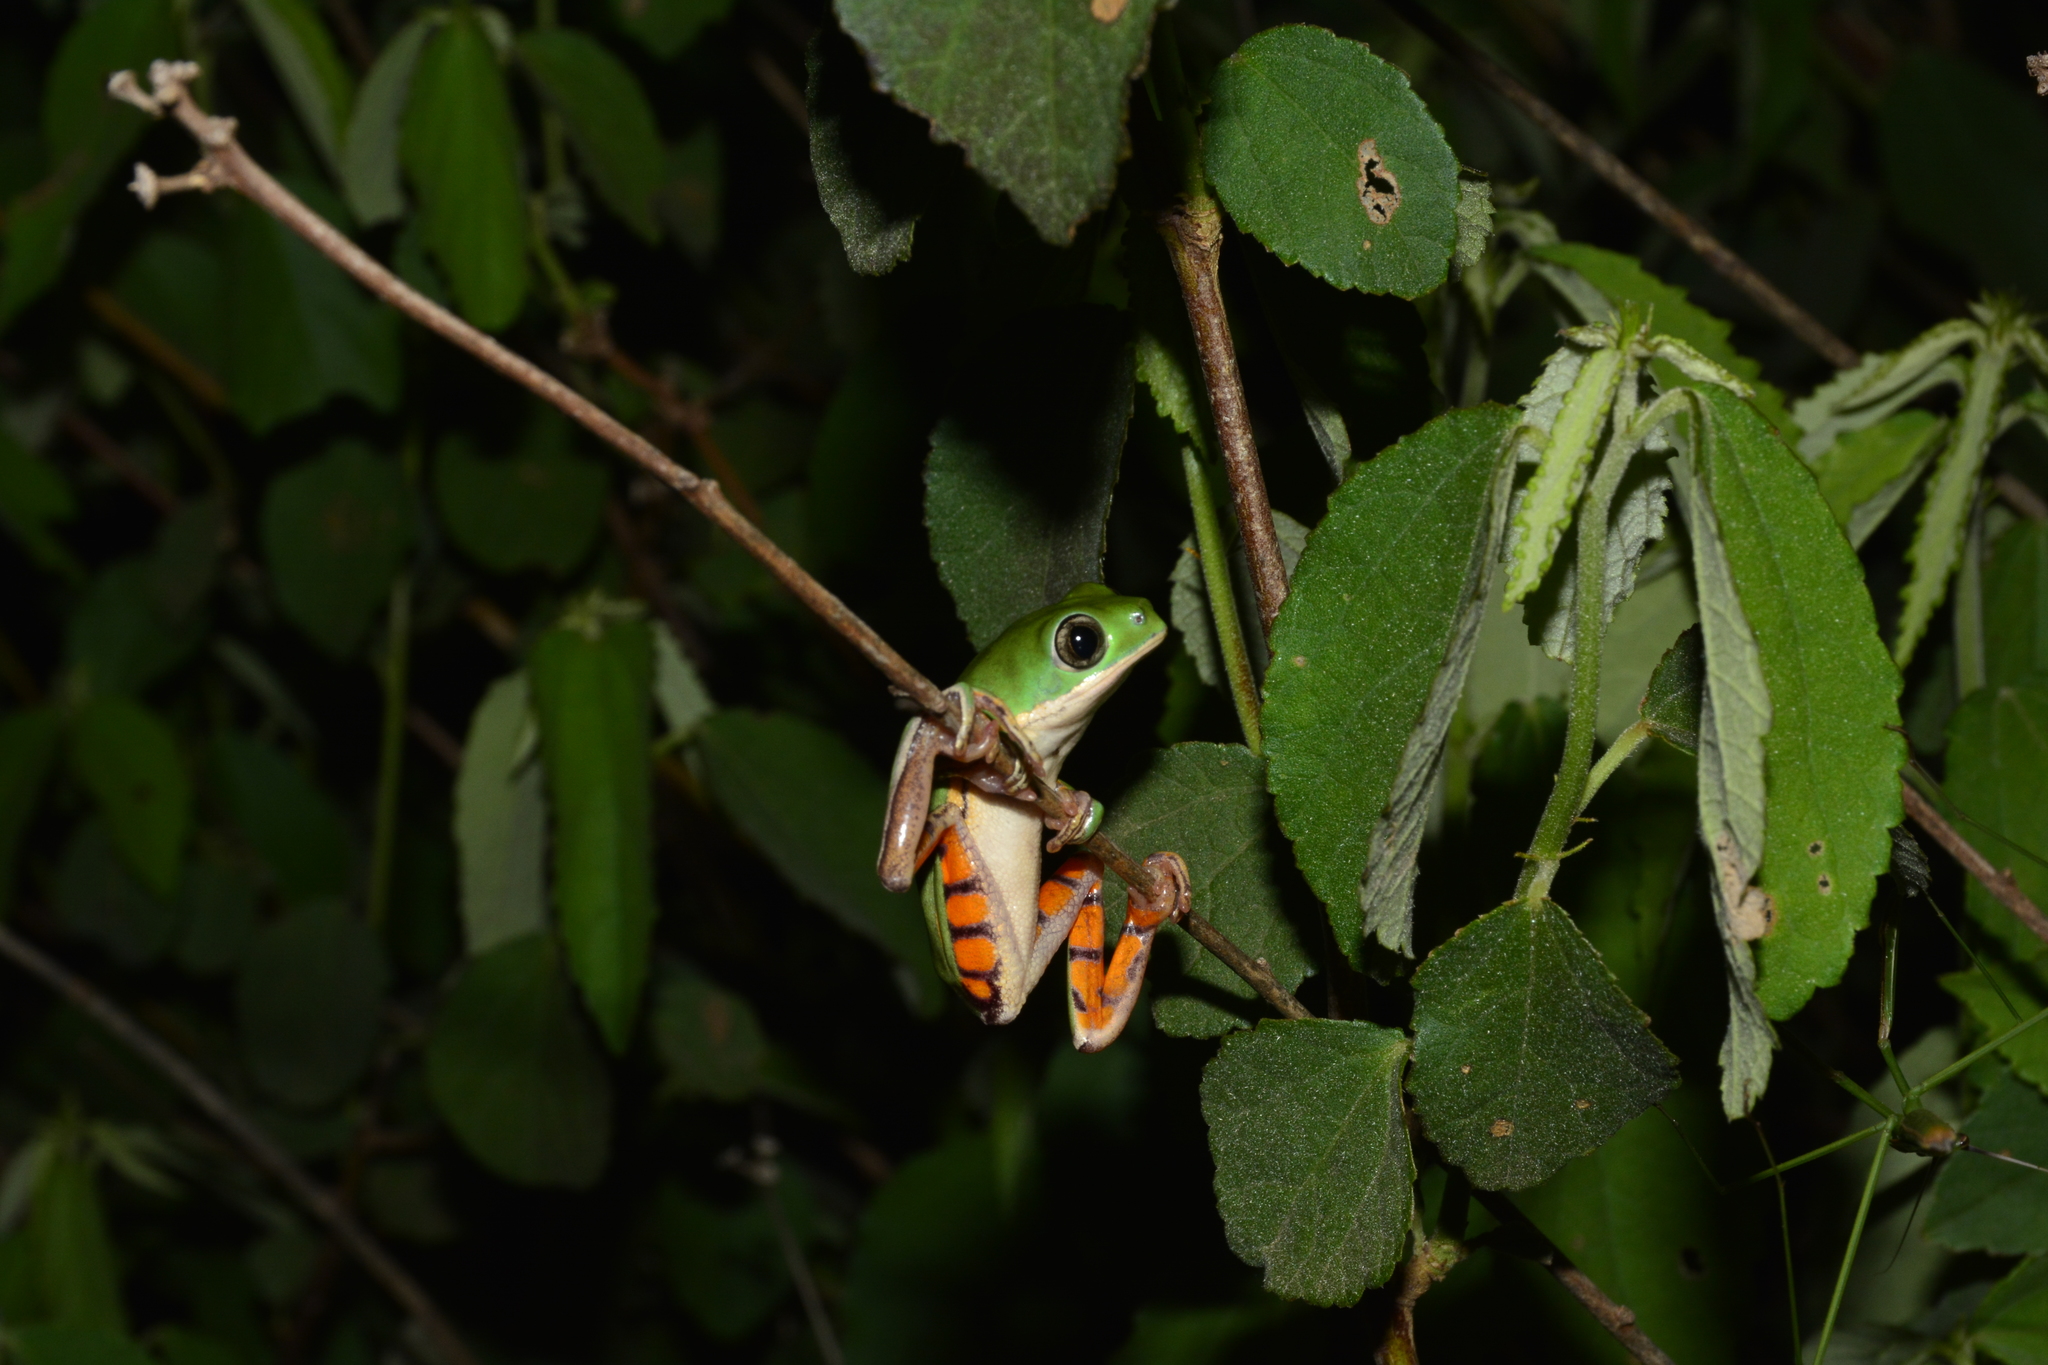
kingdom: Animalia
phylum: Chordata
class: Amphibia
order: Anura
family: Phyllomedusidae
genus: Pithecopus
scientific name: Pithecopus azureus
